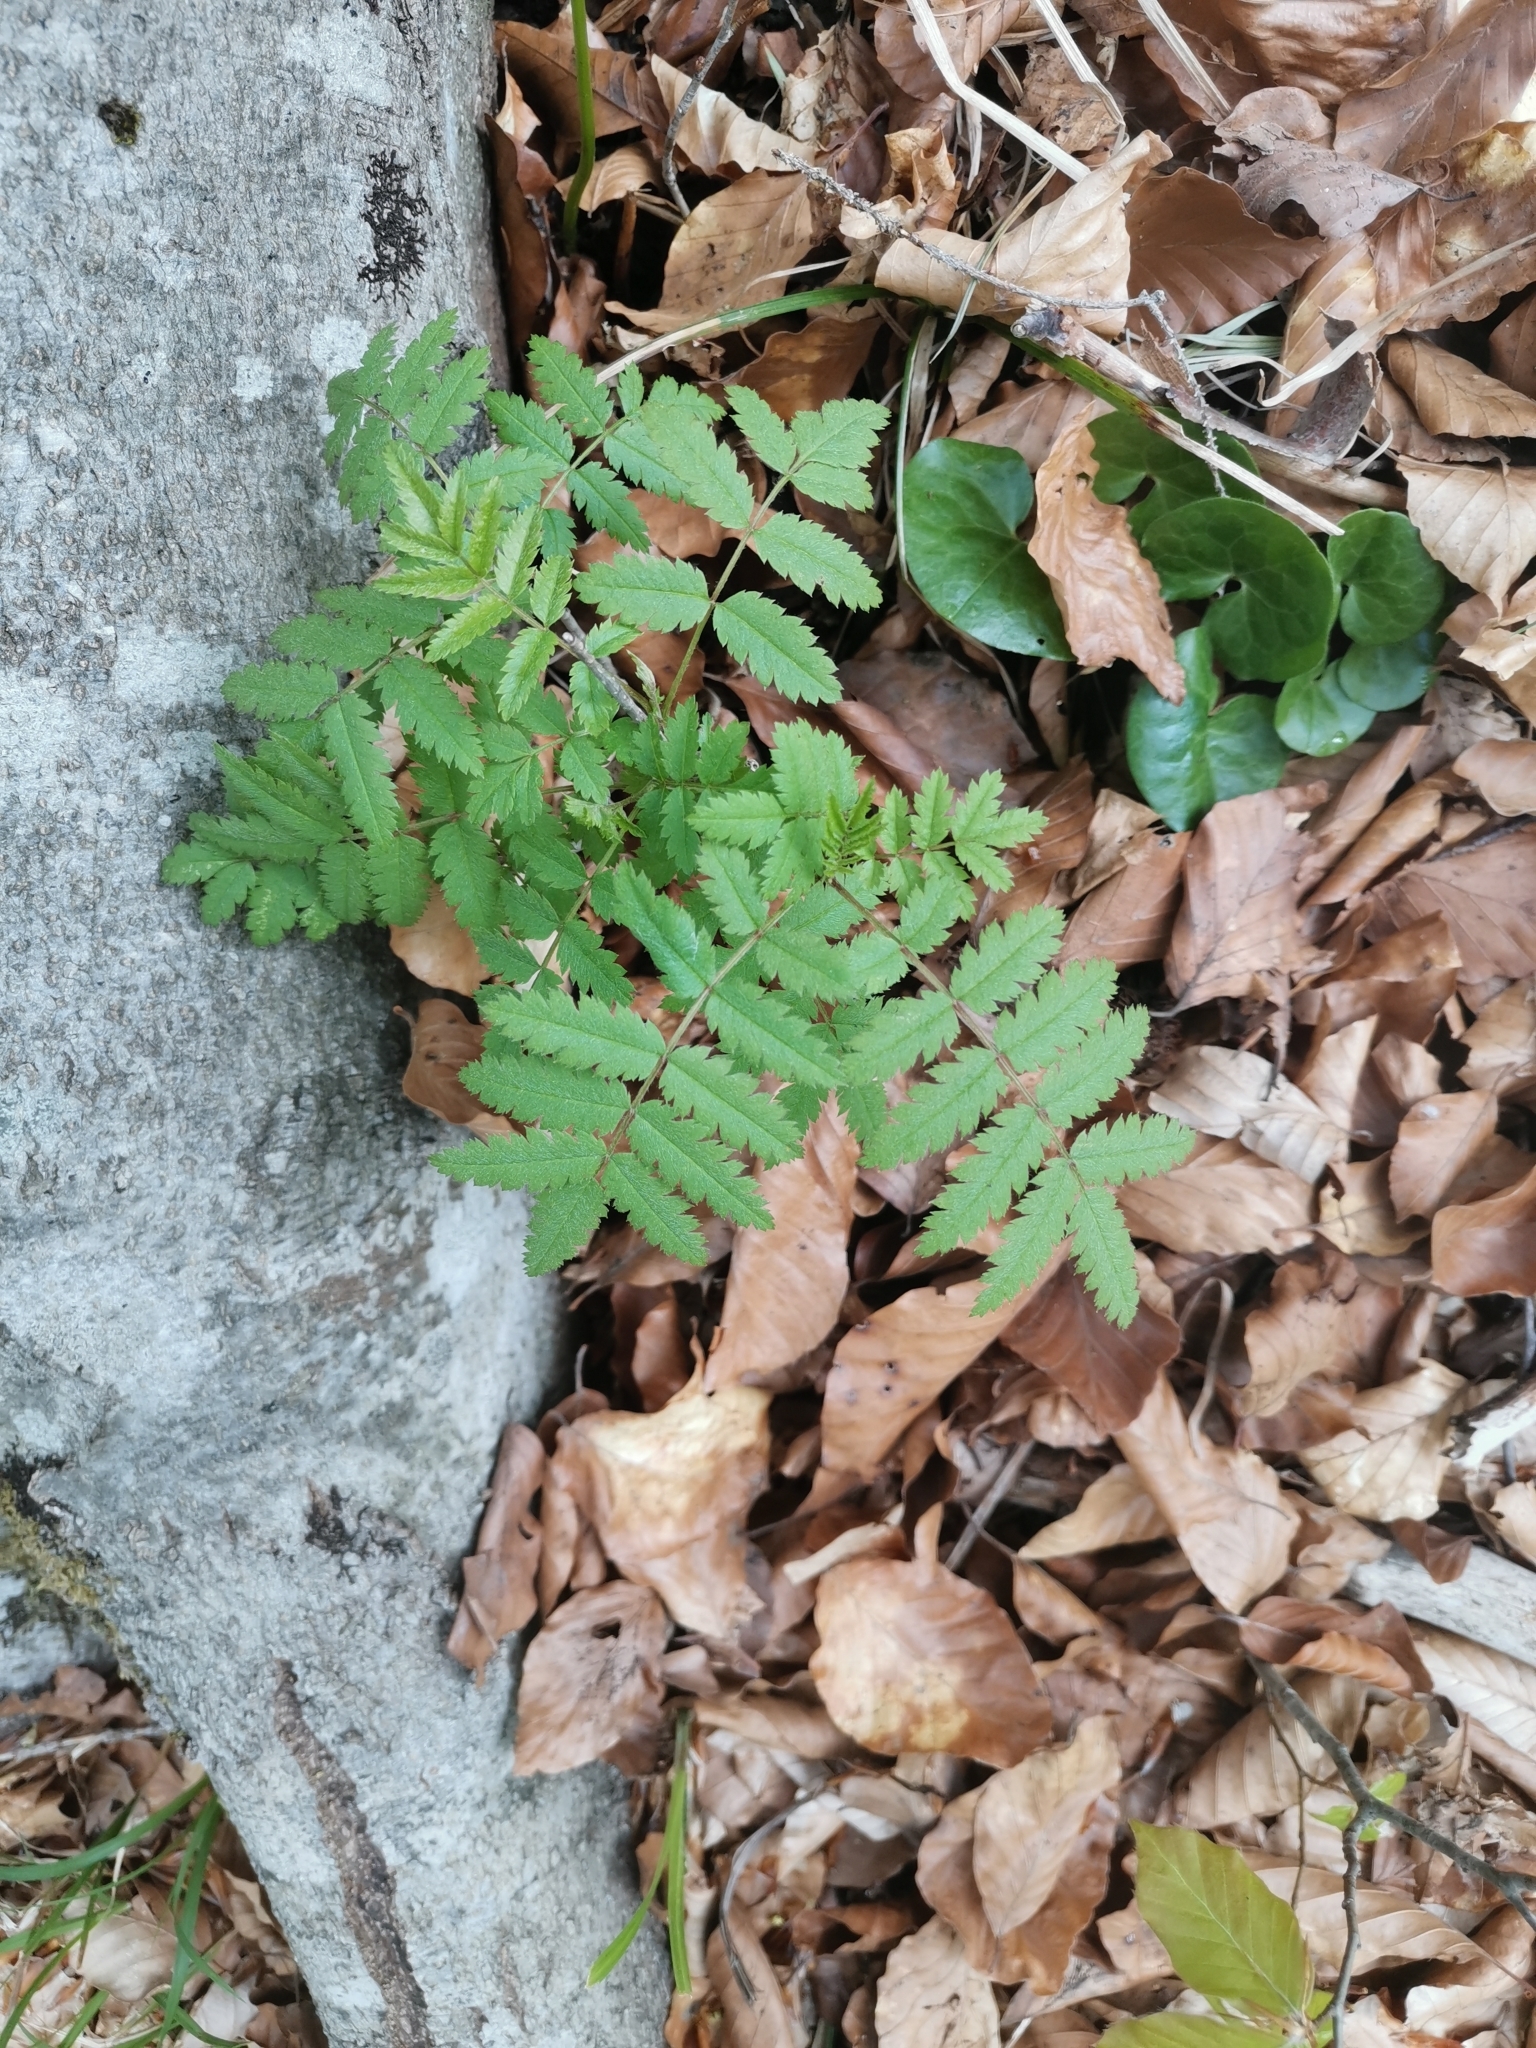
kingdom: Plantae
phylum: Tracheophyta
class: Magnoliopsida
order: Rosales
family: Rosaceae
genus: Sorbus
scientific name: Sorbus aucuparia
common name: Rowan
